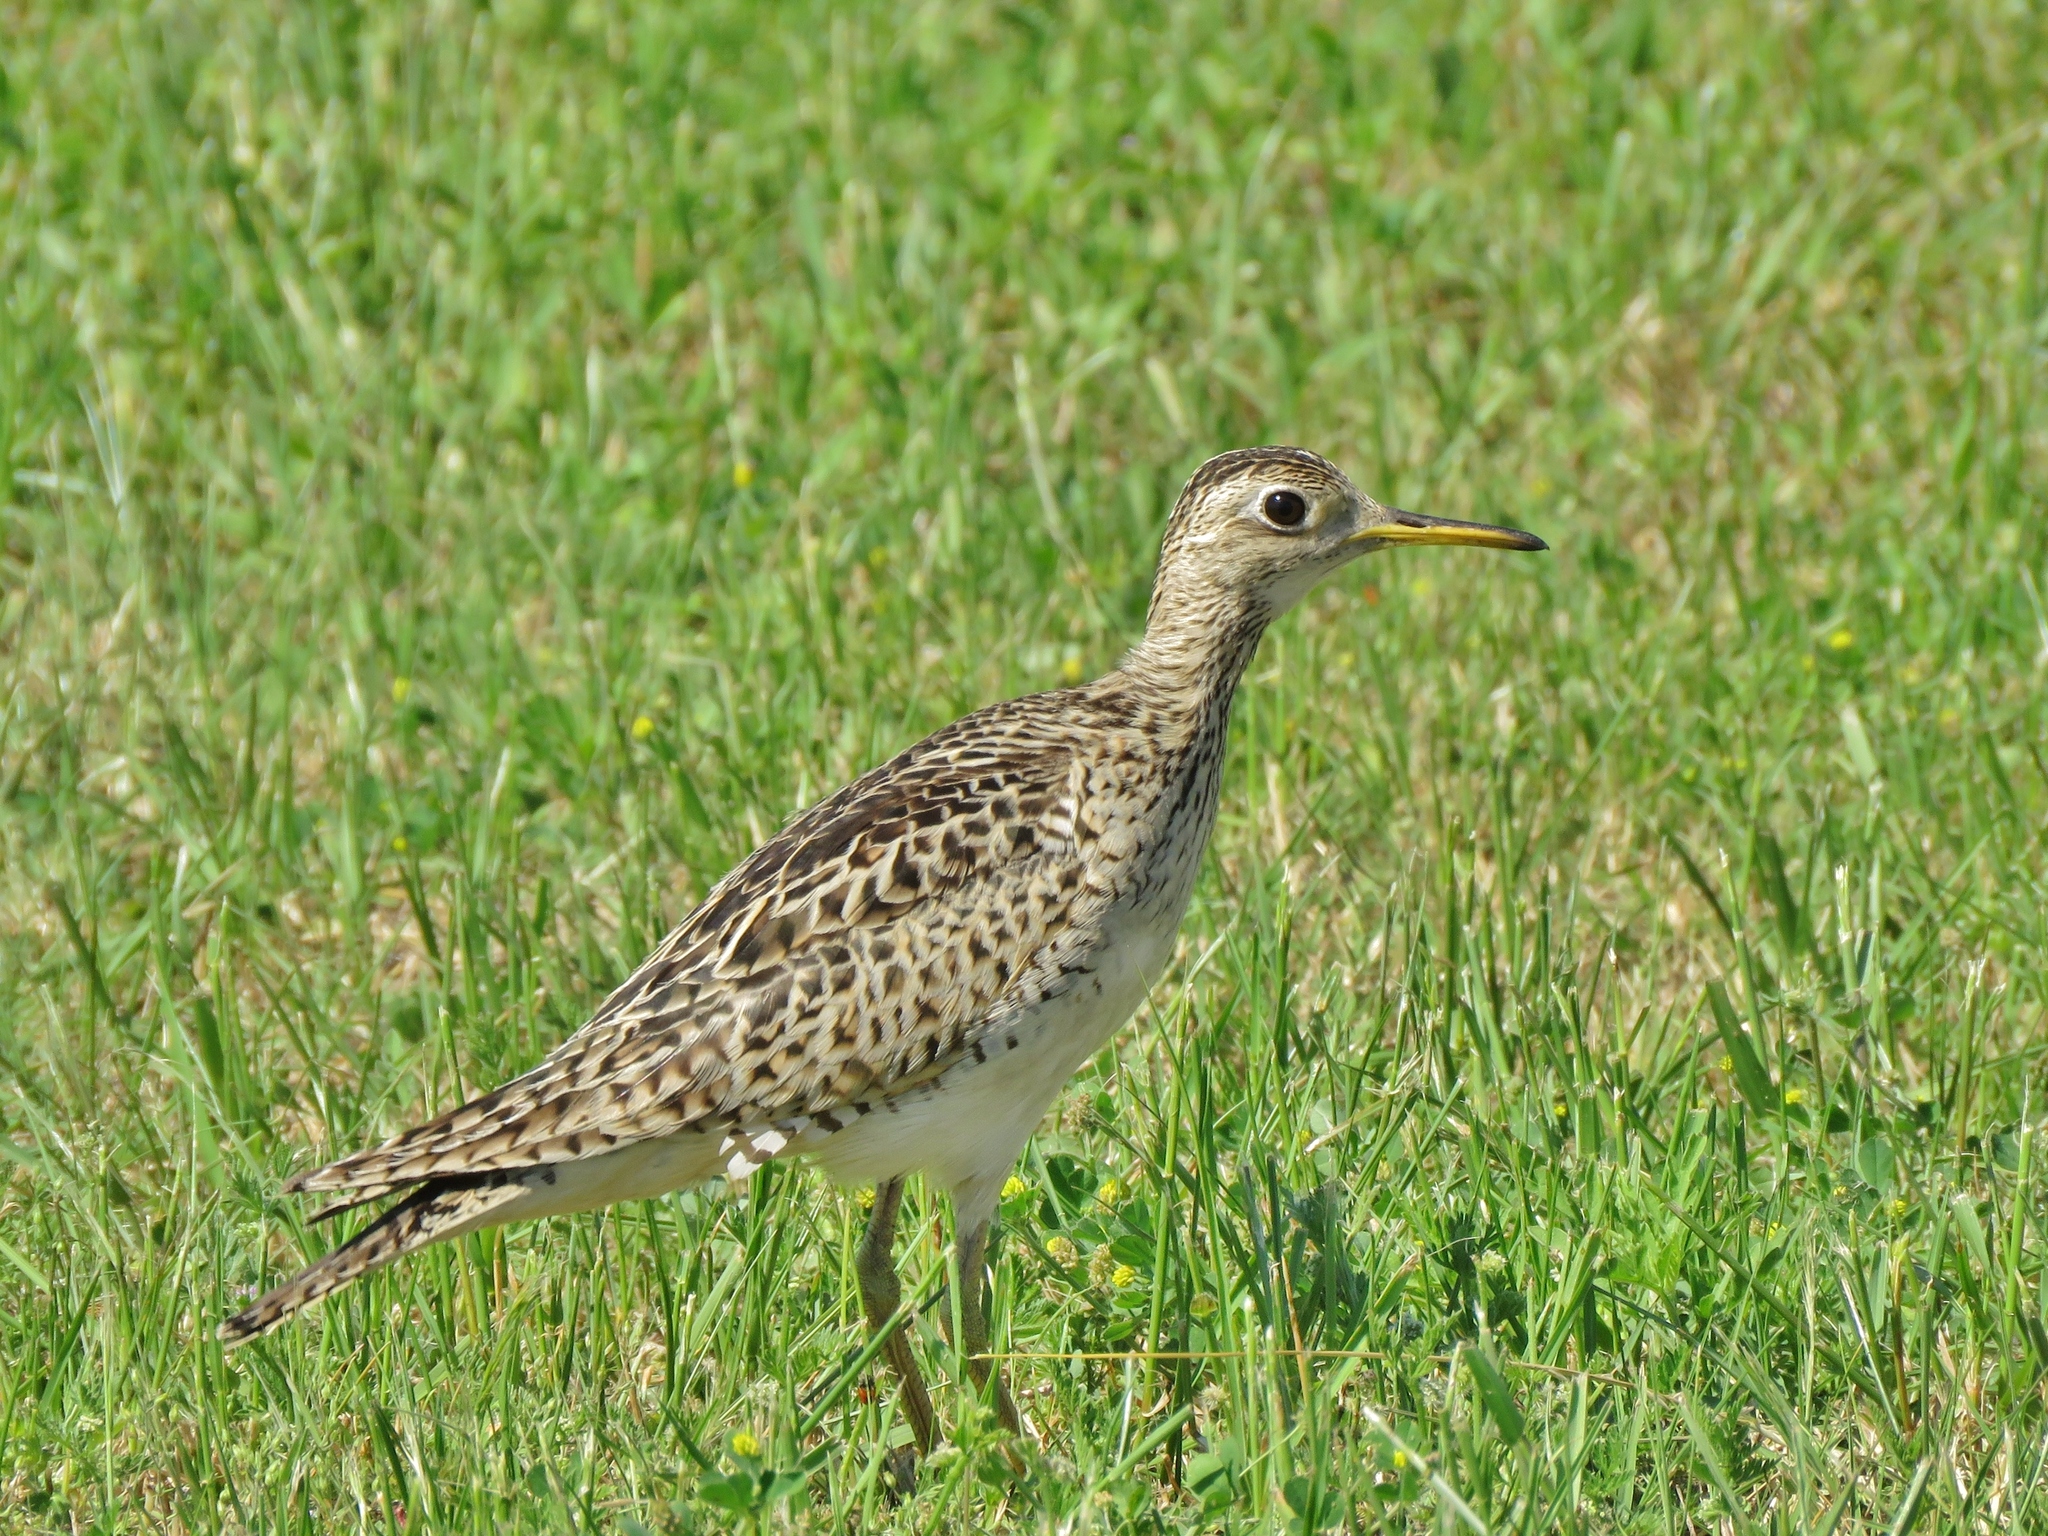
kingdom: Animalia
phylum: Chordata
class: Aves
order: Charadriiformes
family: Scolopacidae
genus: Bartramia
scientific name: Bartramia longicauda
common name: Upland sandpiper
